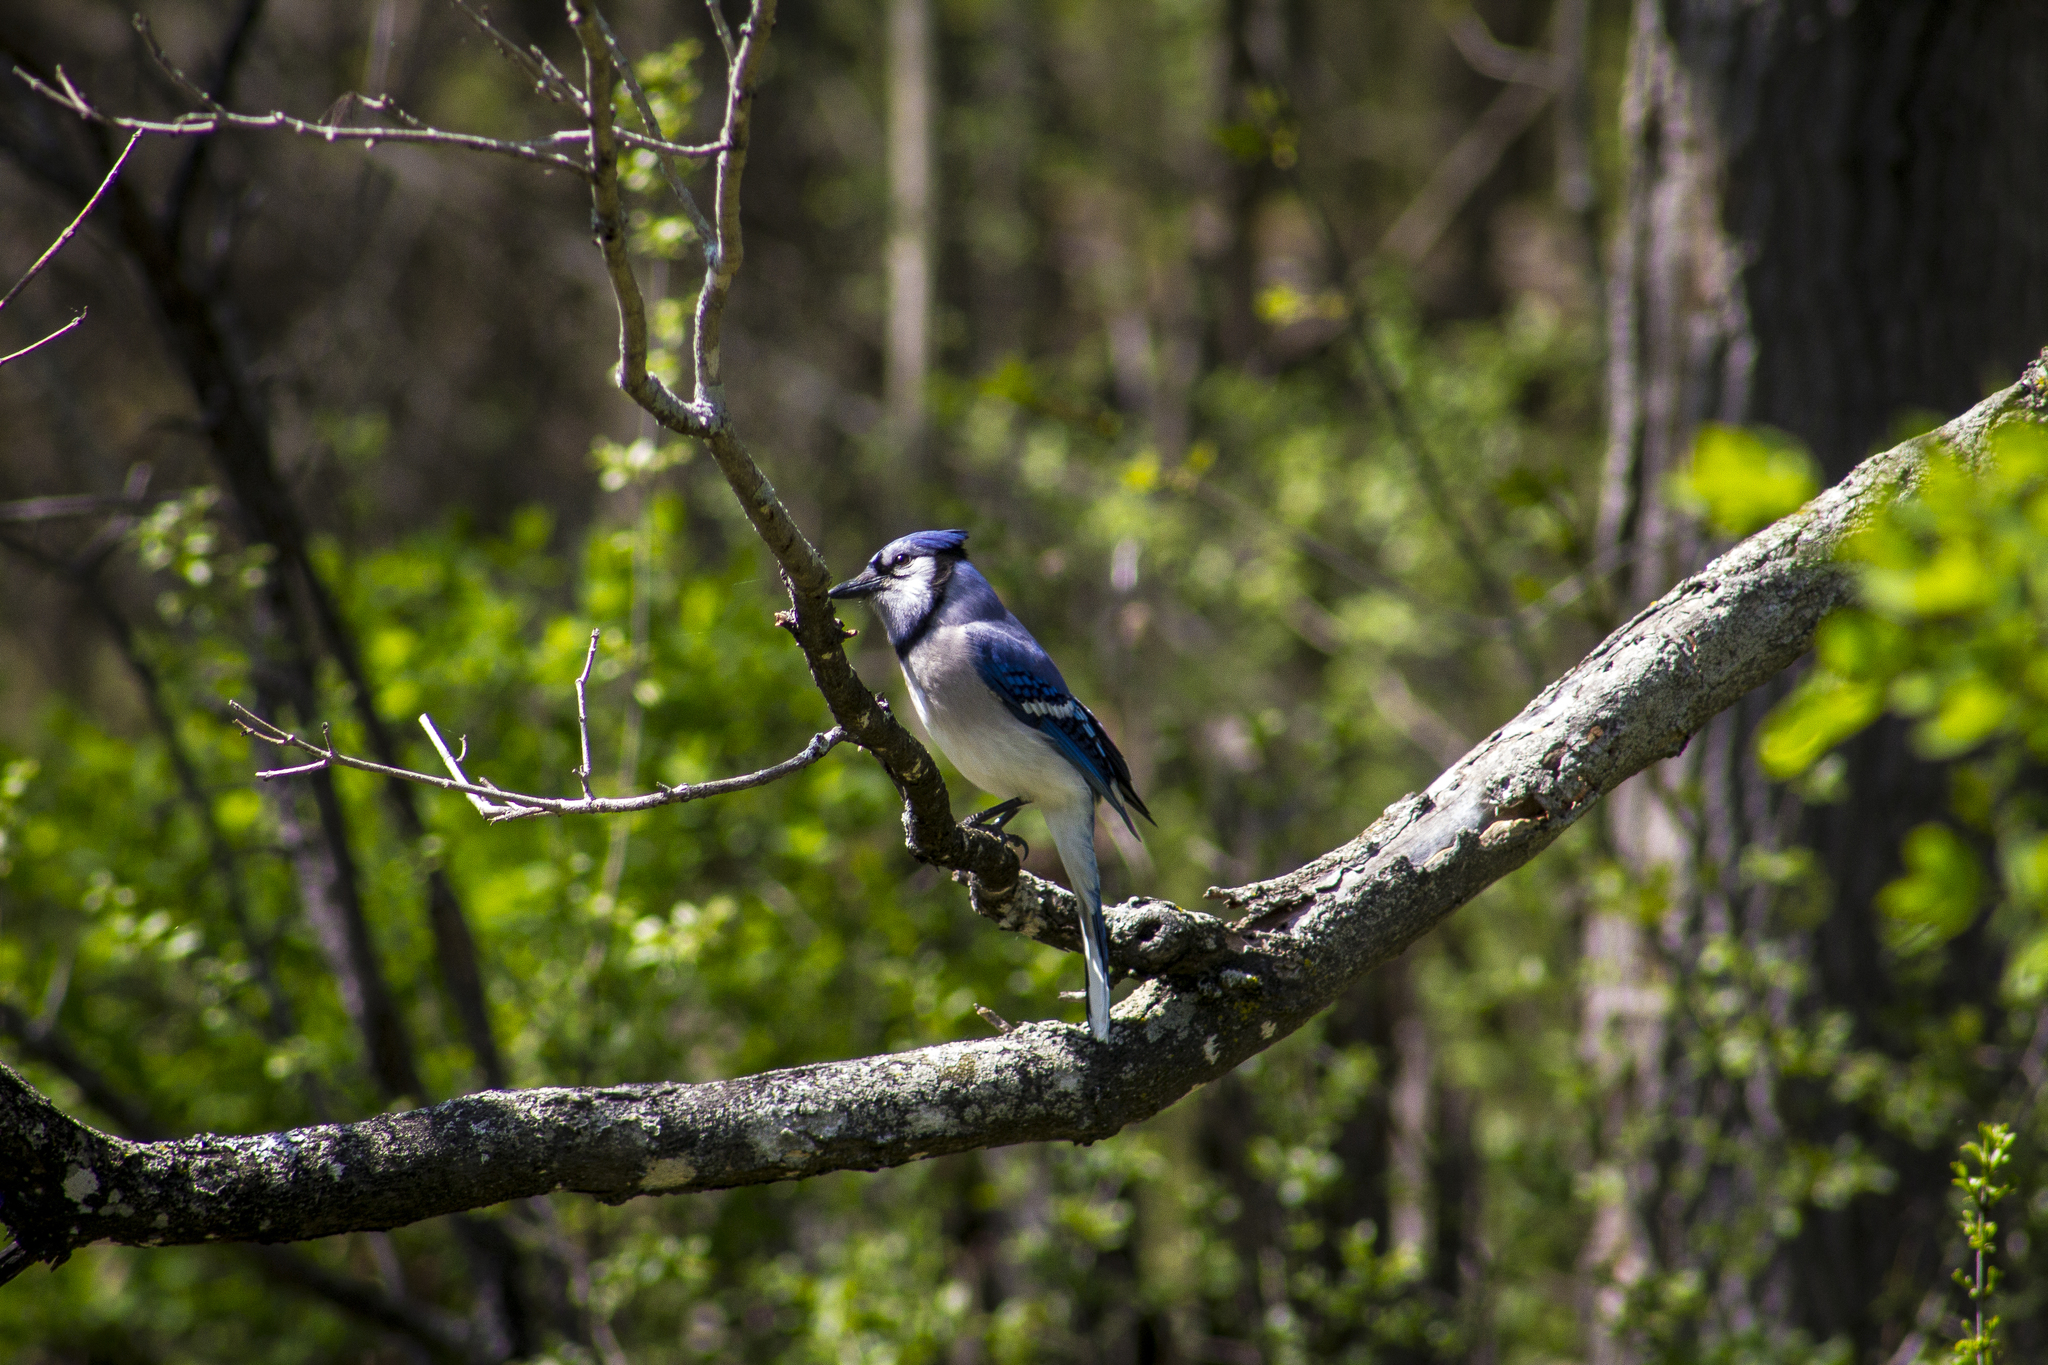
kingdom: Animalia
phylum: Chordata
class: Aves
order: Passeriformes
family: Corvidae
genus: Cyanocitta
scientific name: Cyanocitta cristata
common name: Blue jay
